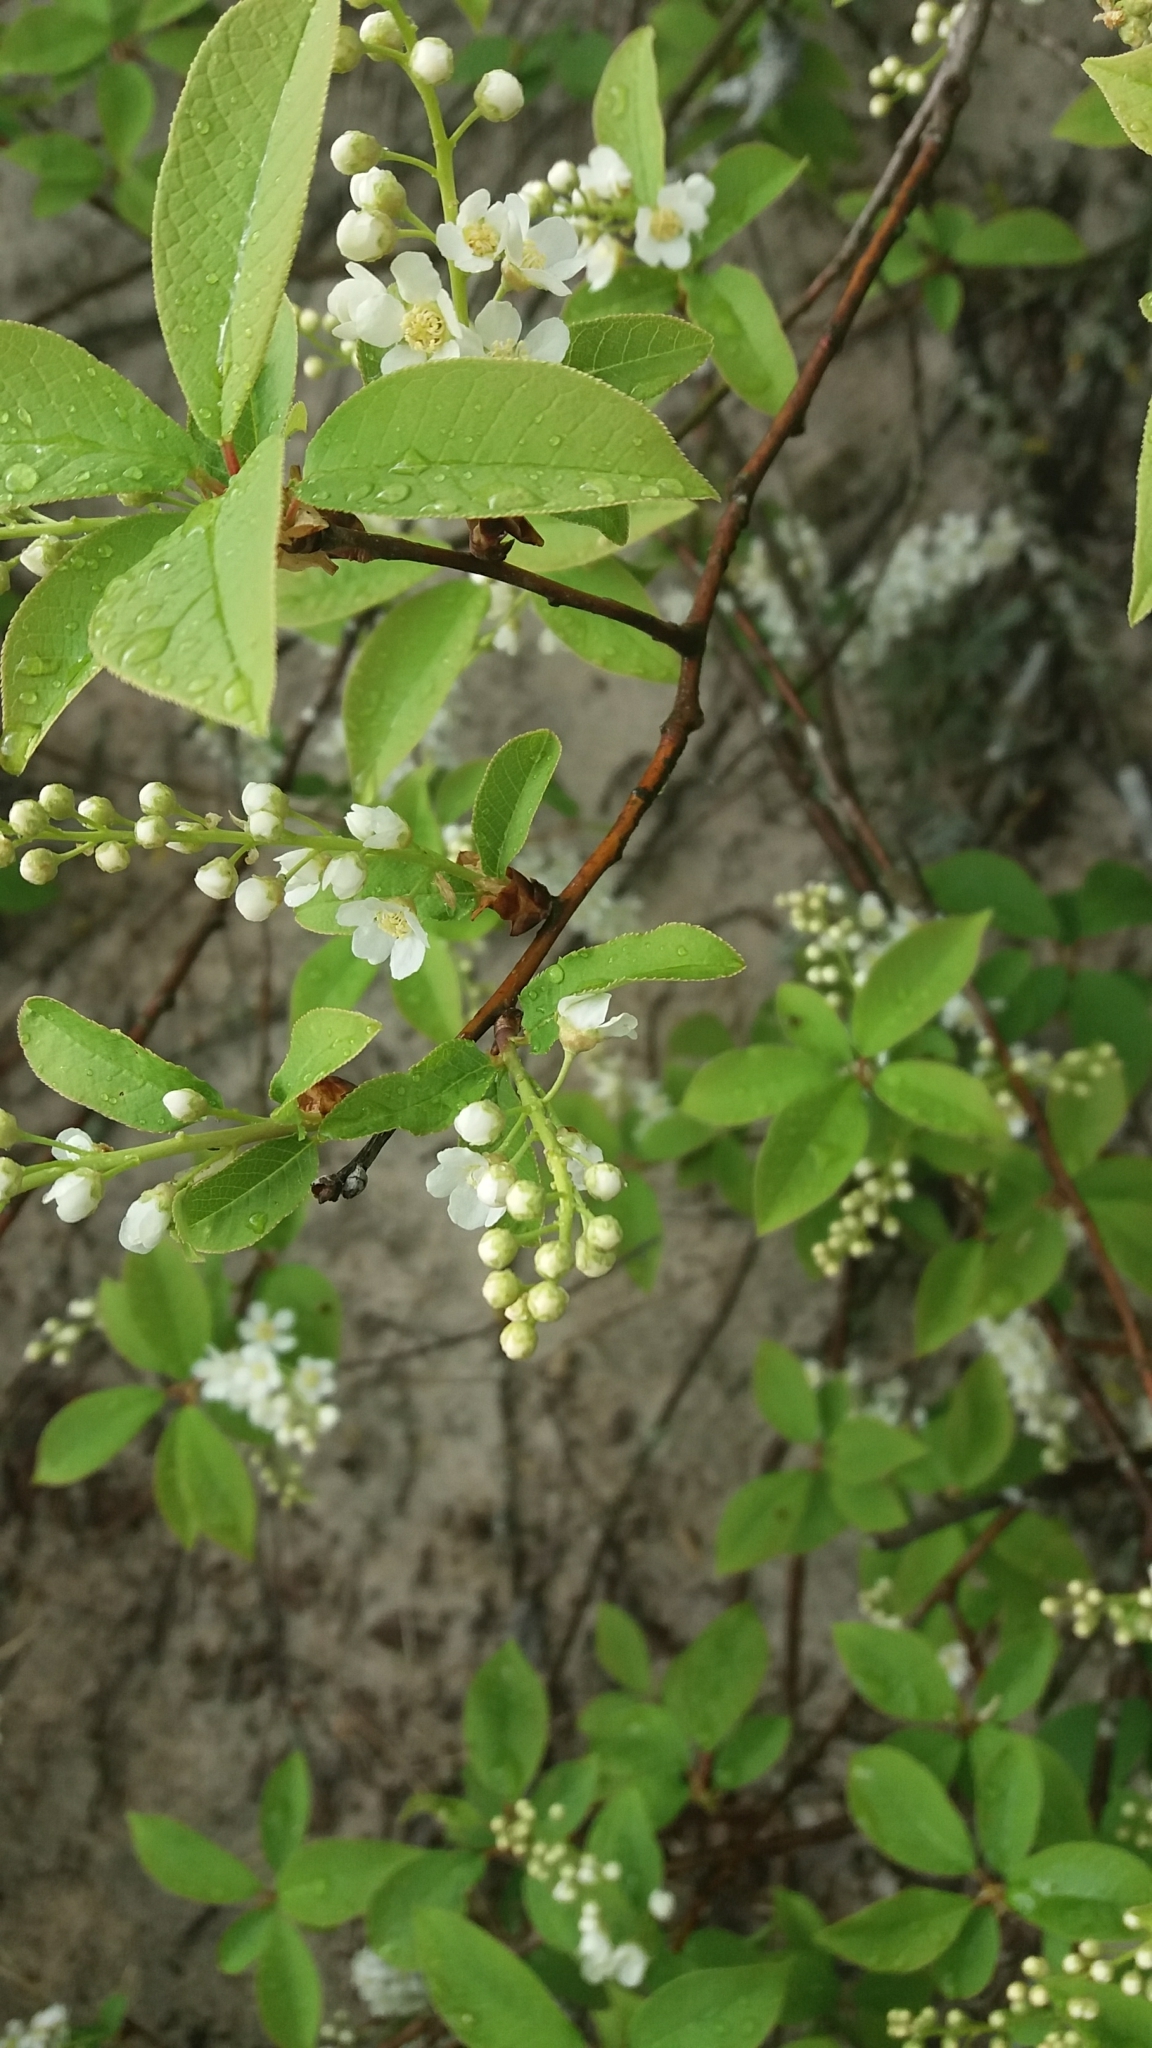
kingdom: Plantae
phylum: Tracheophyta
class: Magnoliopsida
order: Rosales
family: Rosaceae
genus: Prunus
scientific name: Prunus padus
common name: Bird cherry
